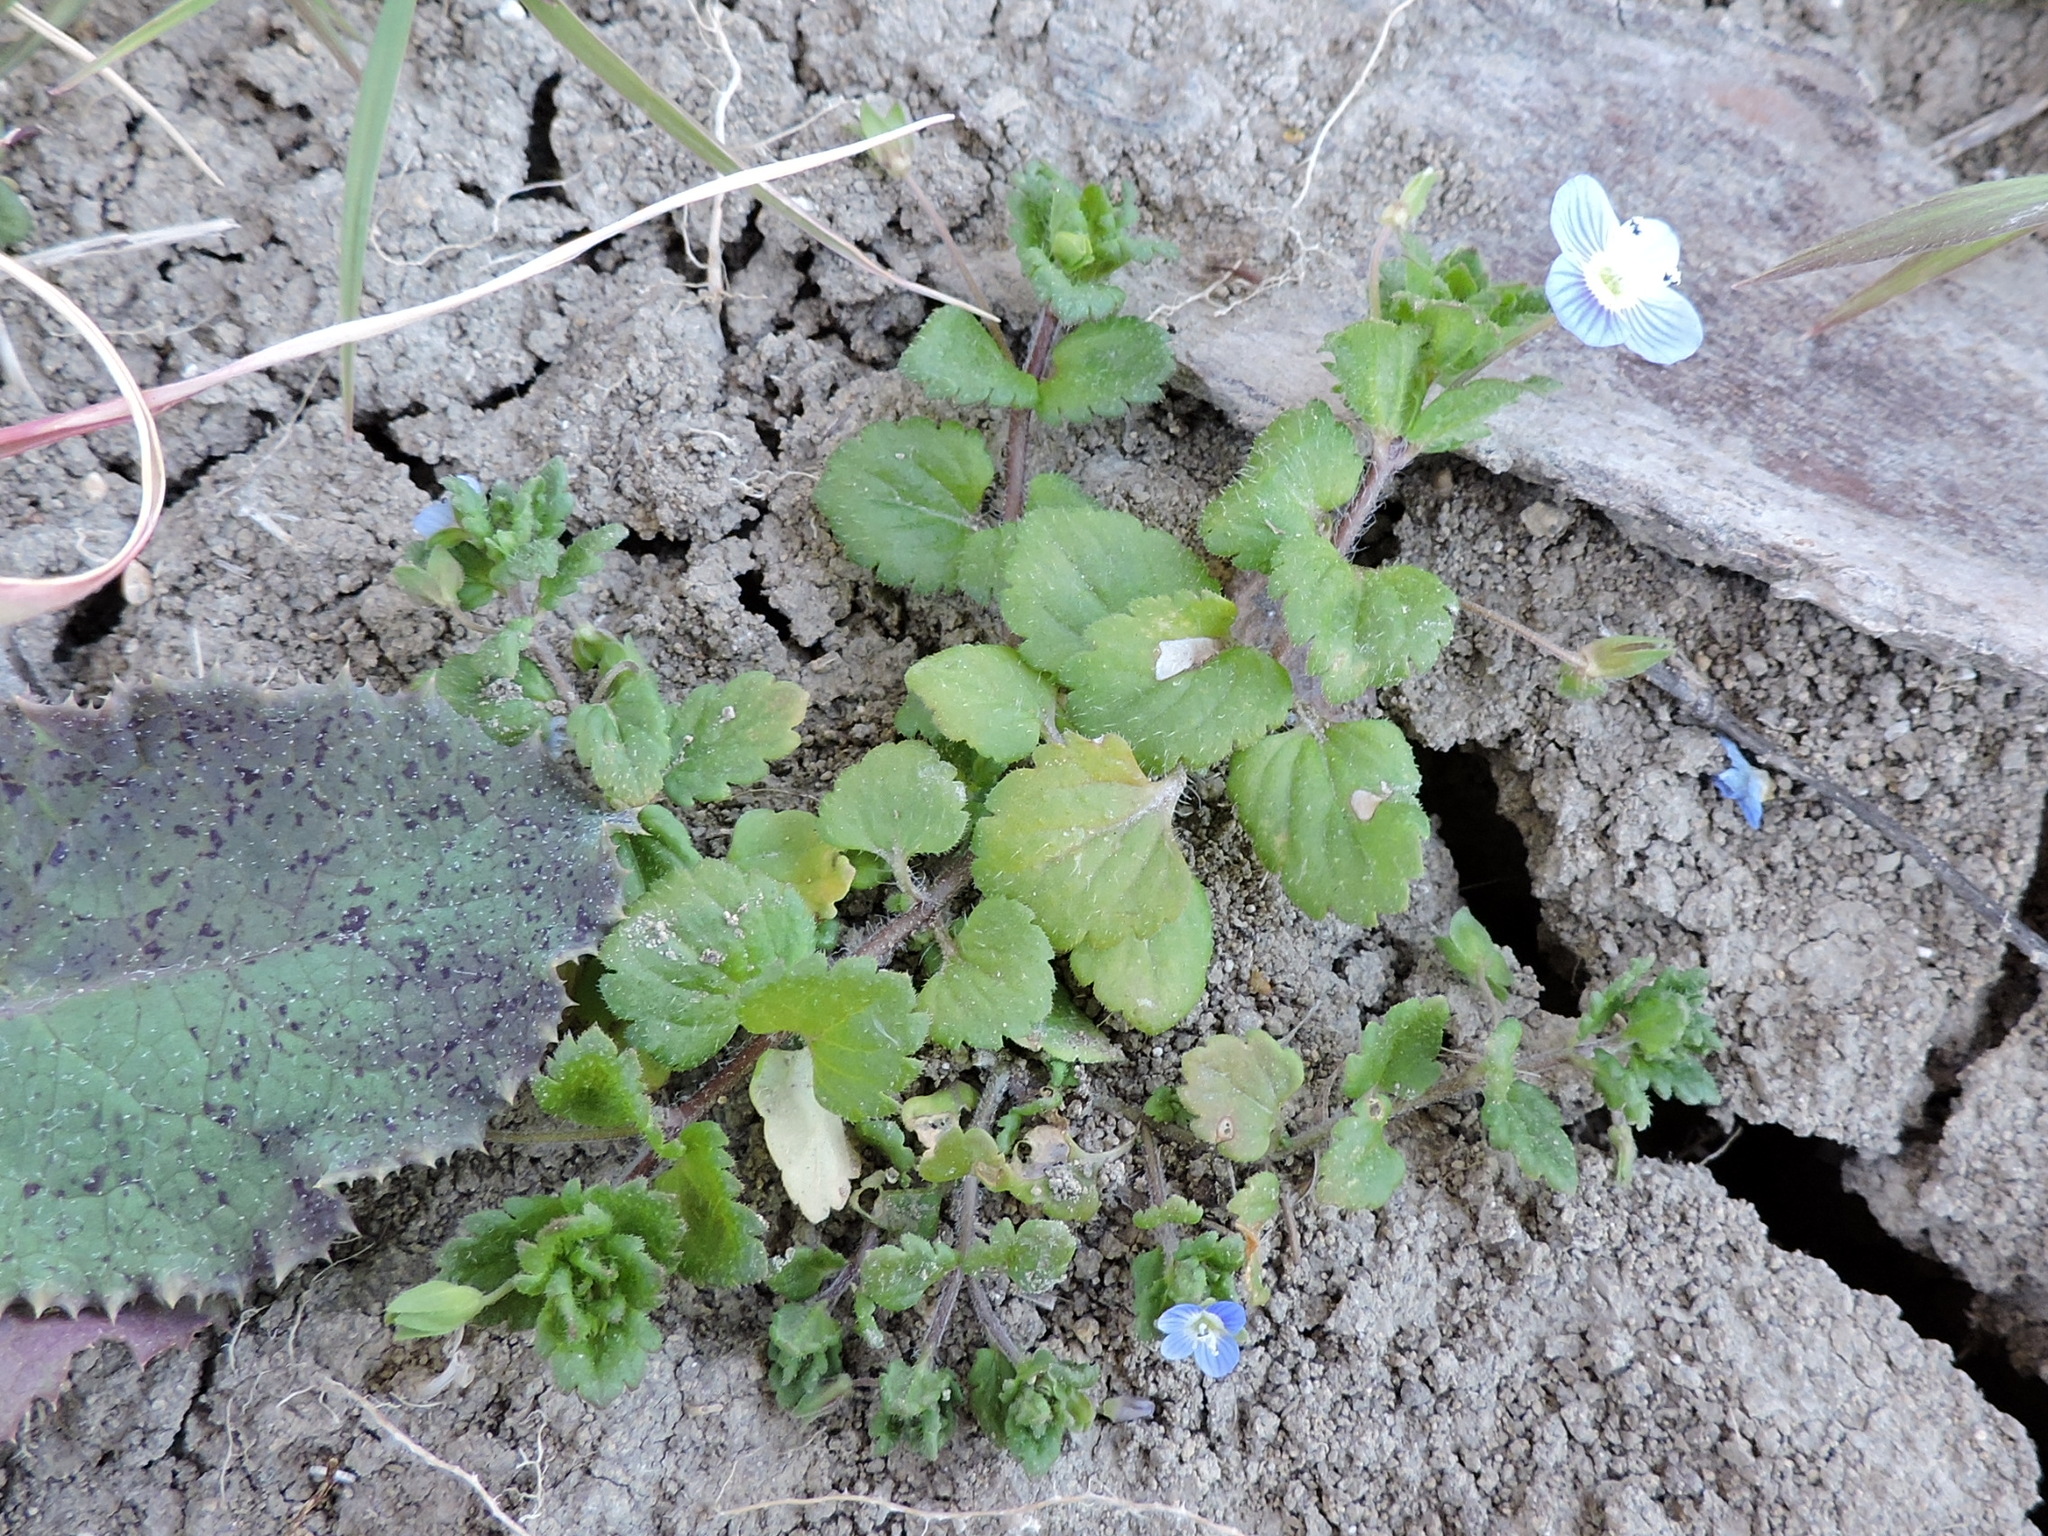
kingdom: Plantae
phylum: Tracheophyta
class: Magnoliopsida
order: Lamiales
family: Plantaginaceae
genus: Veronica
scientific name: Veronica persica
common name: Common field-speedwell
